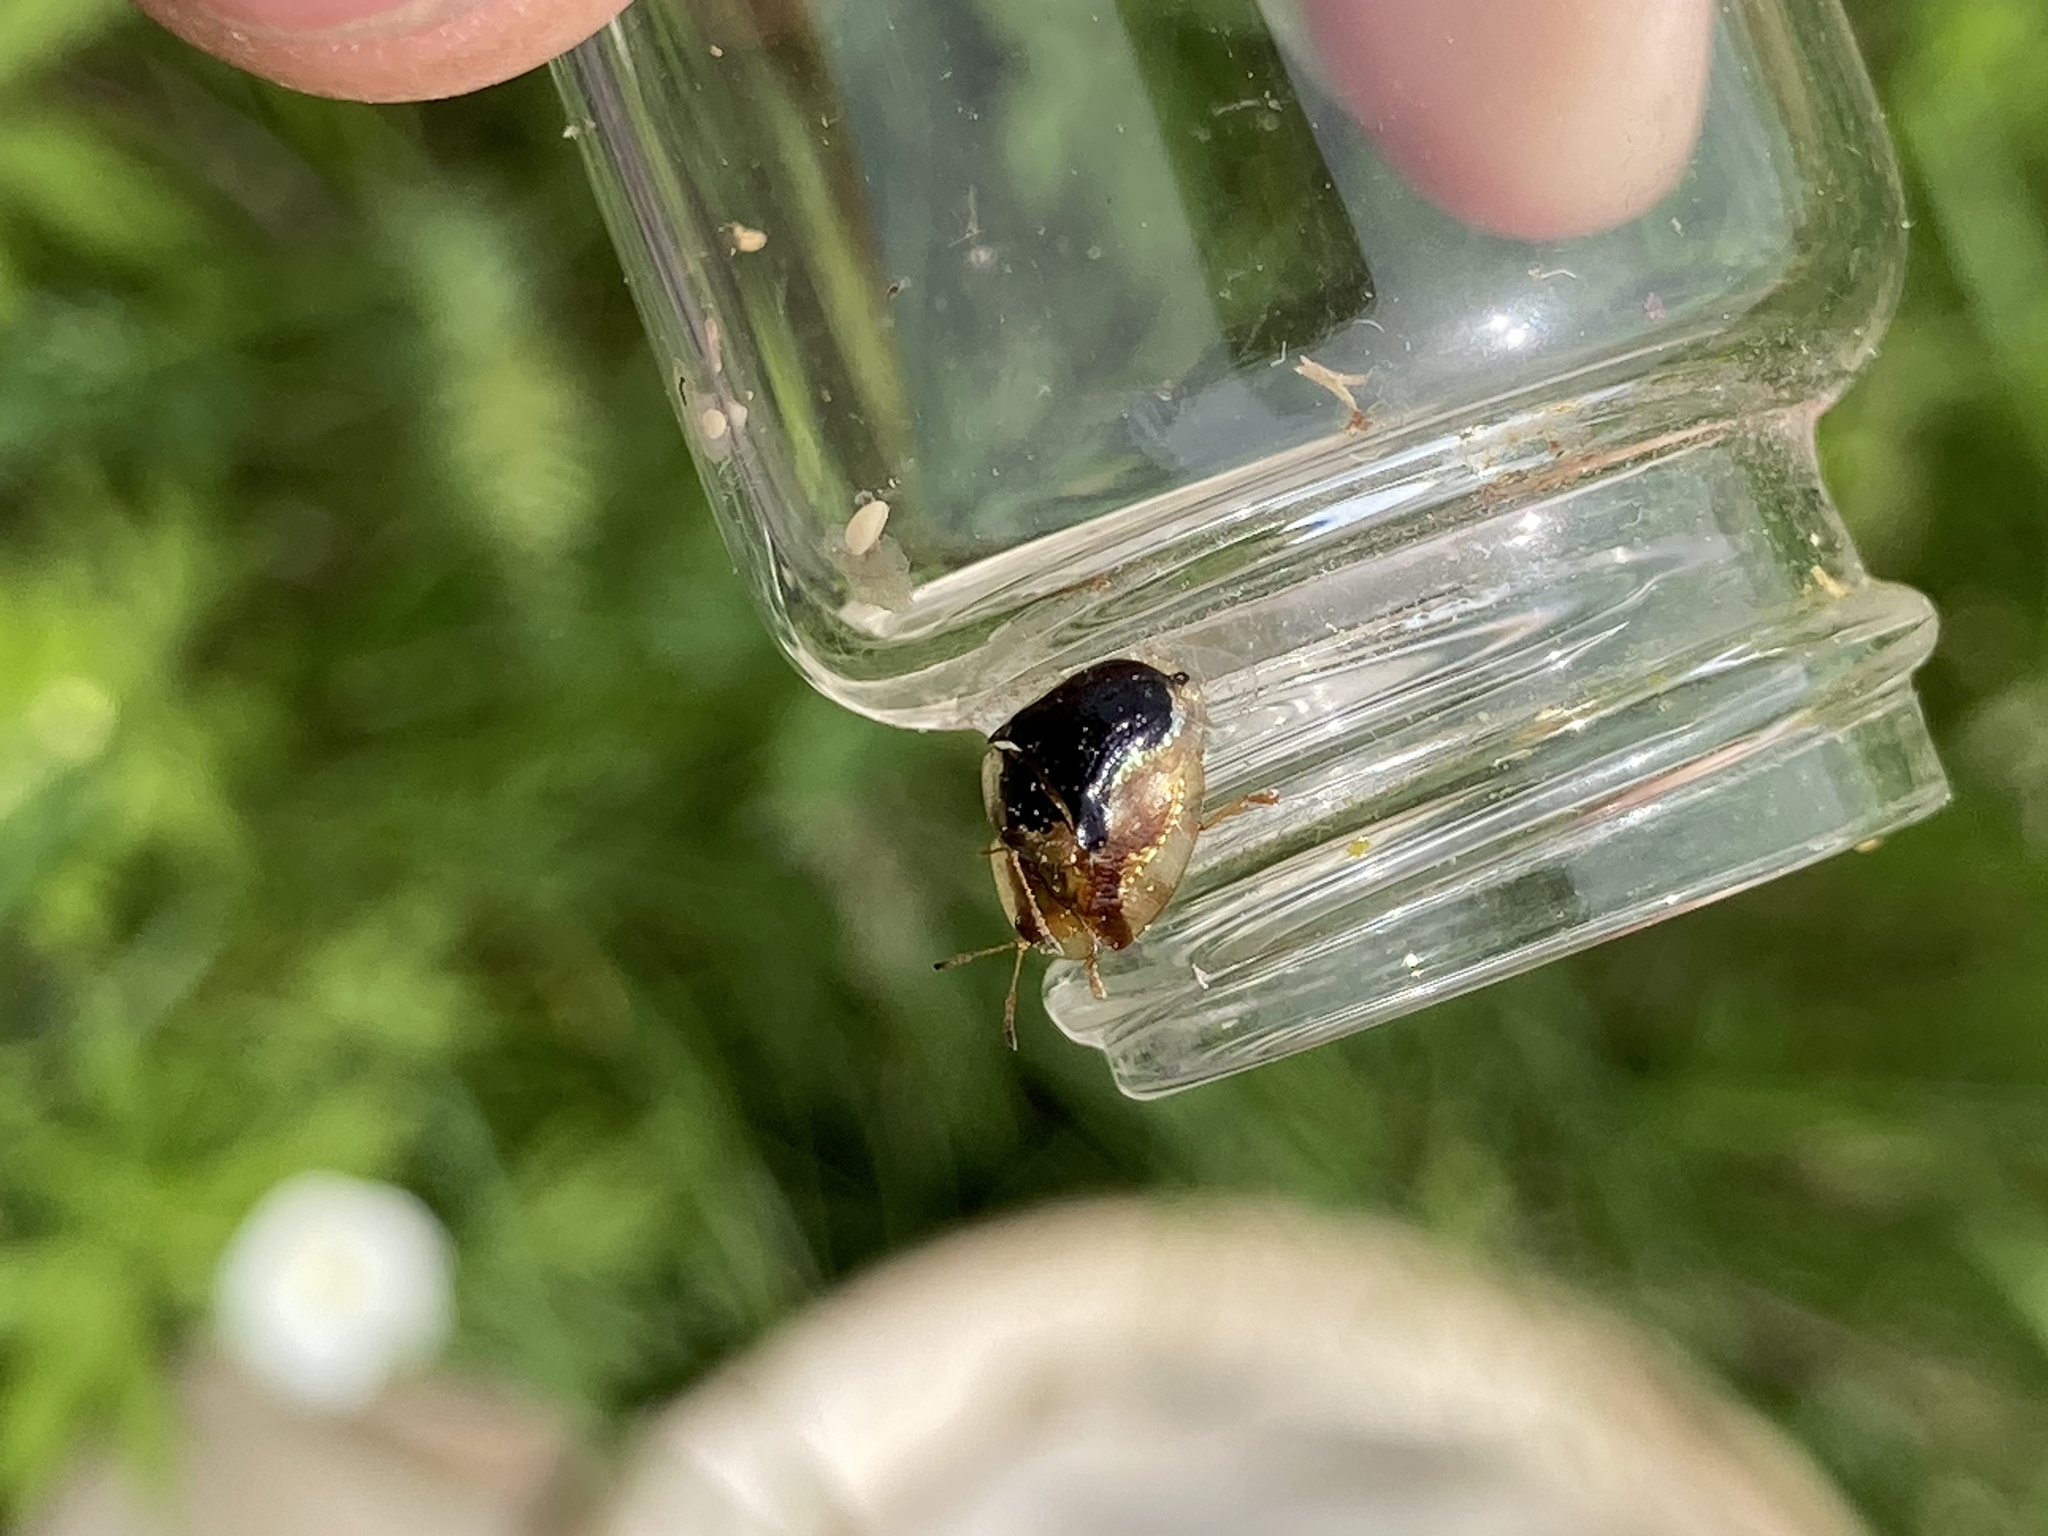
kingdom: Animalia
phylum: Arthropoda
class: Insecta
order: Coleoptera
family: Chrysomelidae
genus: Deloyala
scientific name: Deloyala guttata
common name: Mottled tortoise beetle
